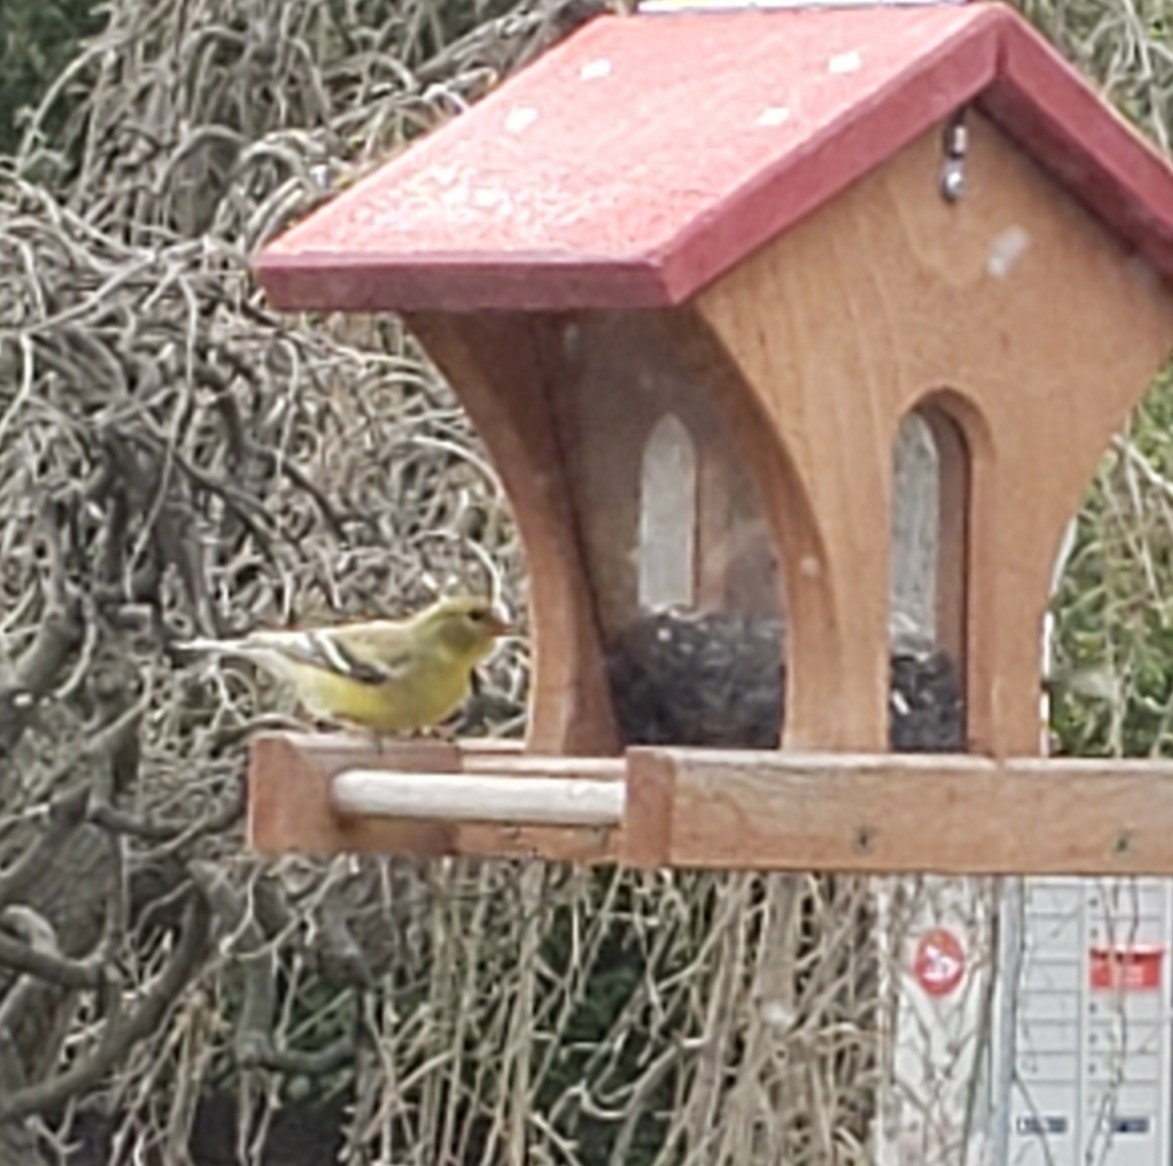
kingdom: Animalia
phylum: Chordata
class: Aves
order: Passeriformes
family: Fringillidae
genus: Spinus
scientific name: Spinus tristis
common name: American goldfinch
